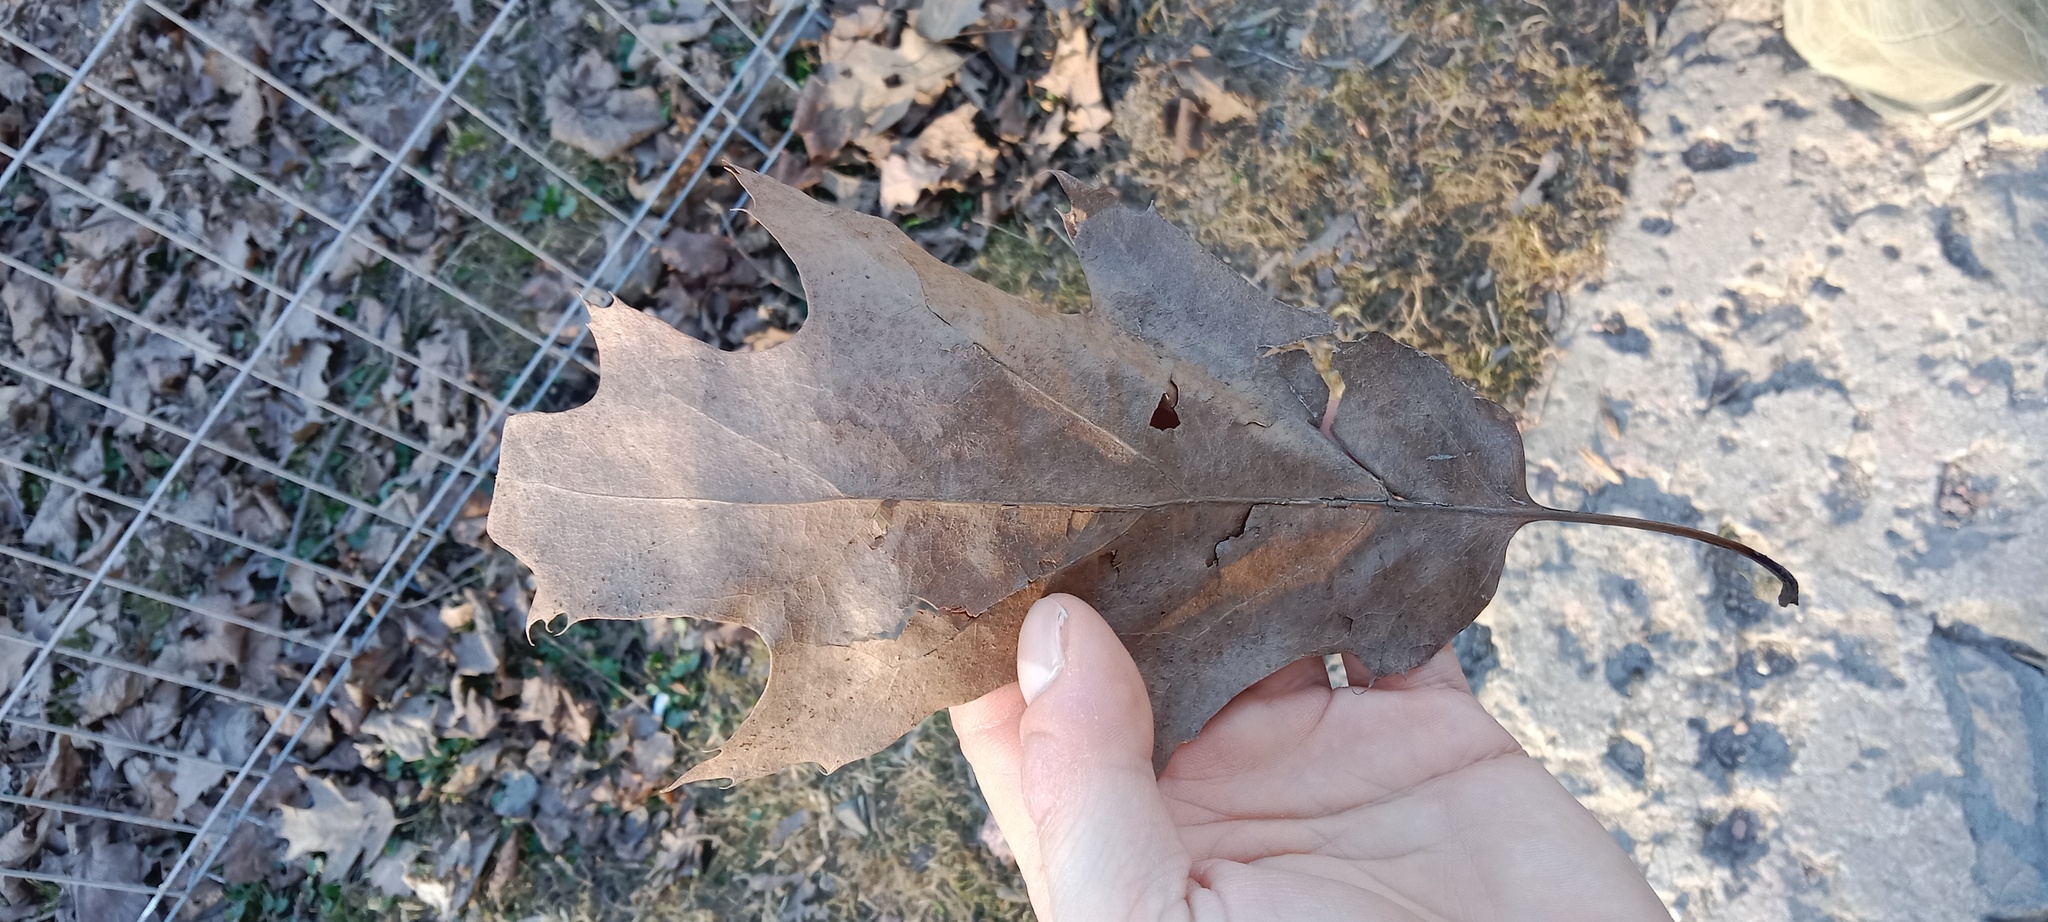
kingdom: Plantae
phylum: Tracheophyta
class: Magnoliopsida
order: Fagales
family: Fagaceae
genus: Quercus
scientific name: Quercus rubra
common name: Red oak
